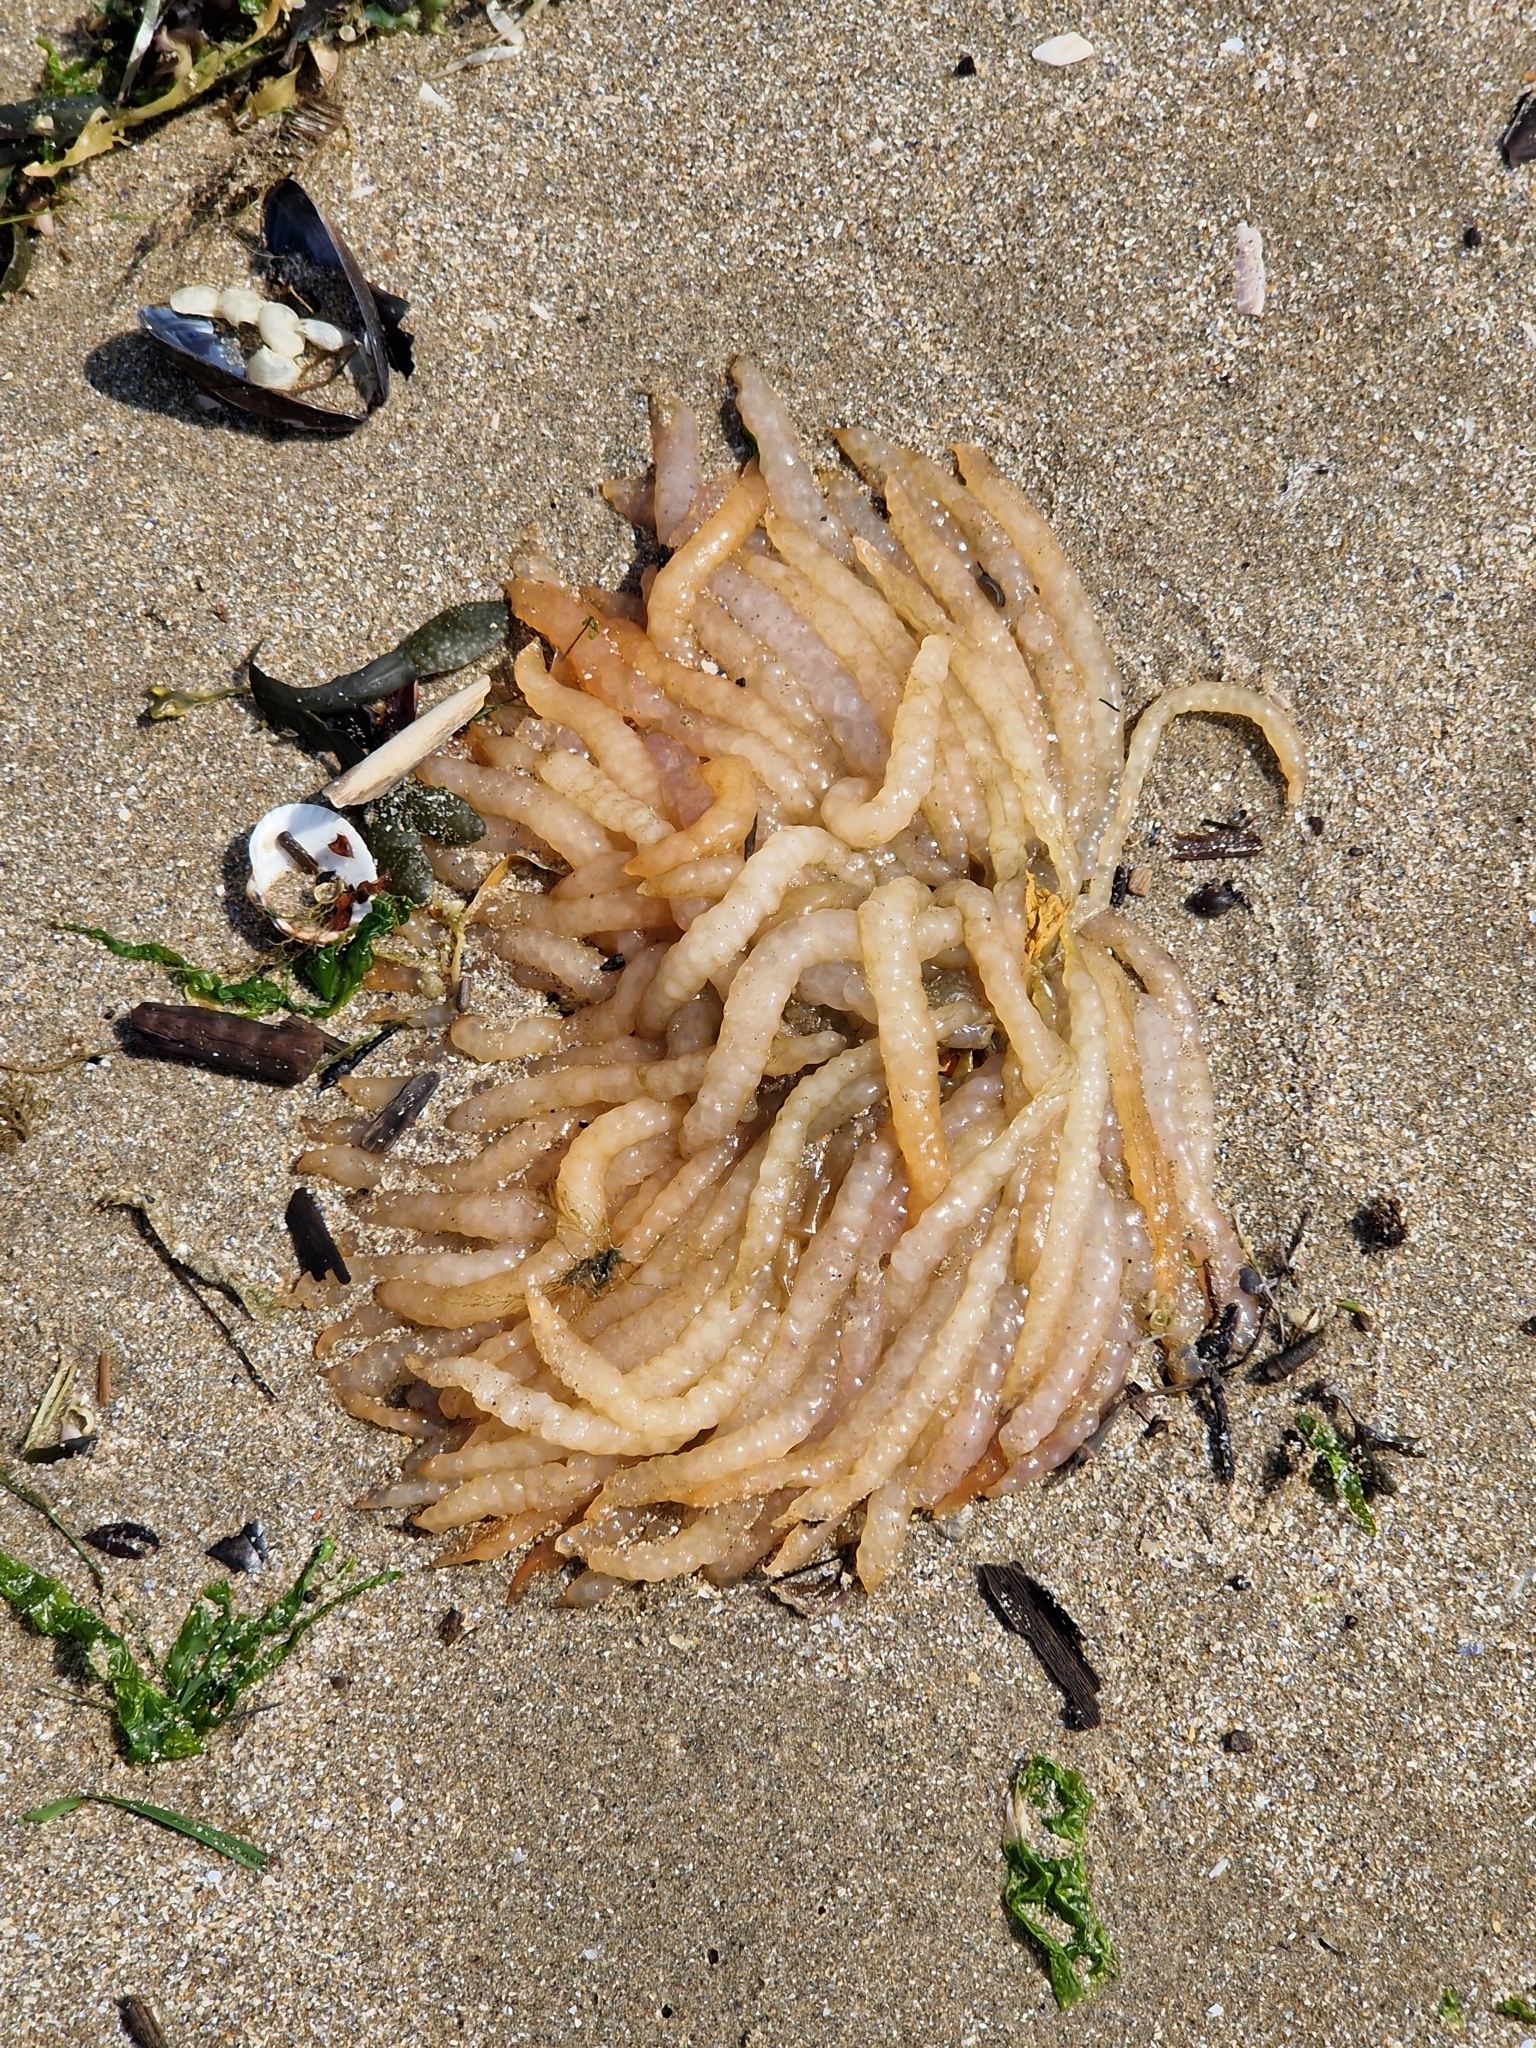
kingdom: Animalia
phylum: Mollusca
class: Cephalopoda
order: Myopsida
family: Loliginidae
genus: Loligo
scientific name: Loligo vulgaris
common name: European squid
